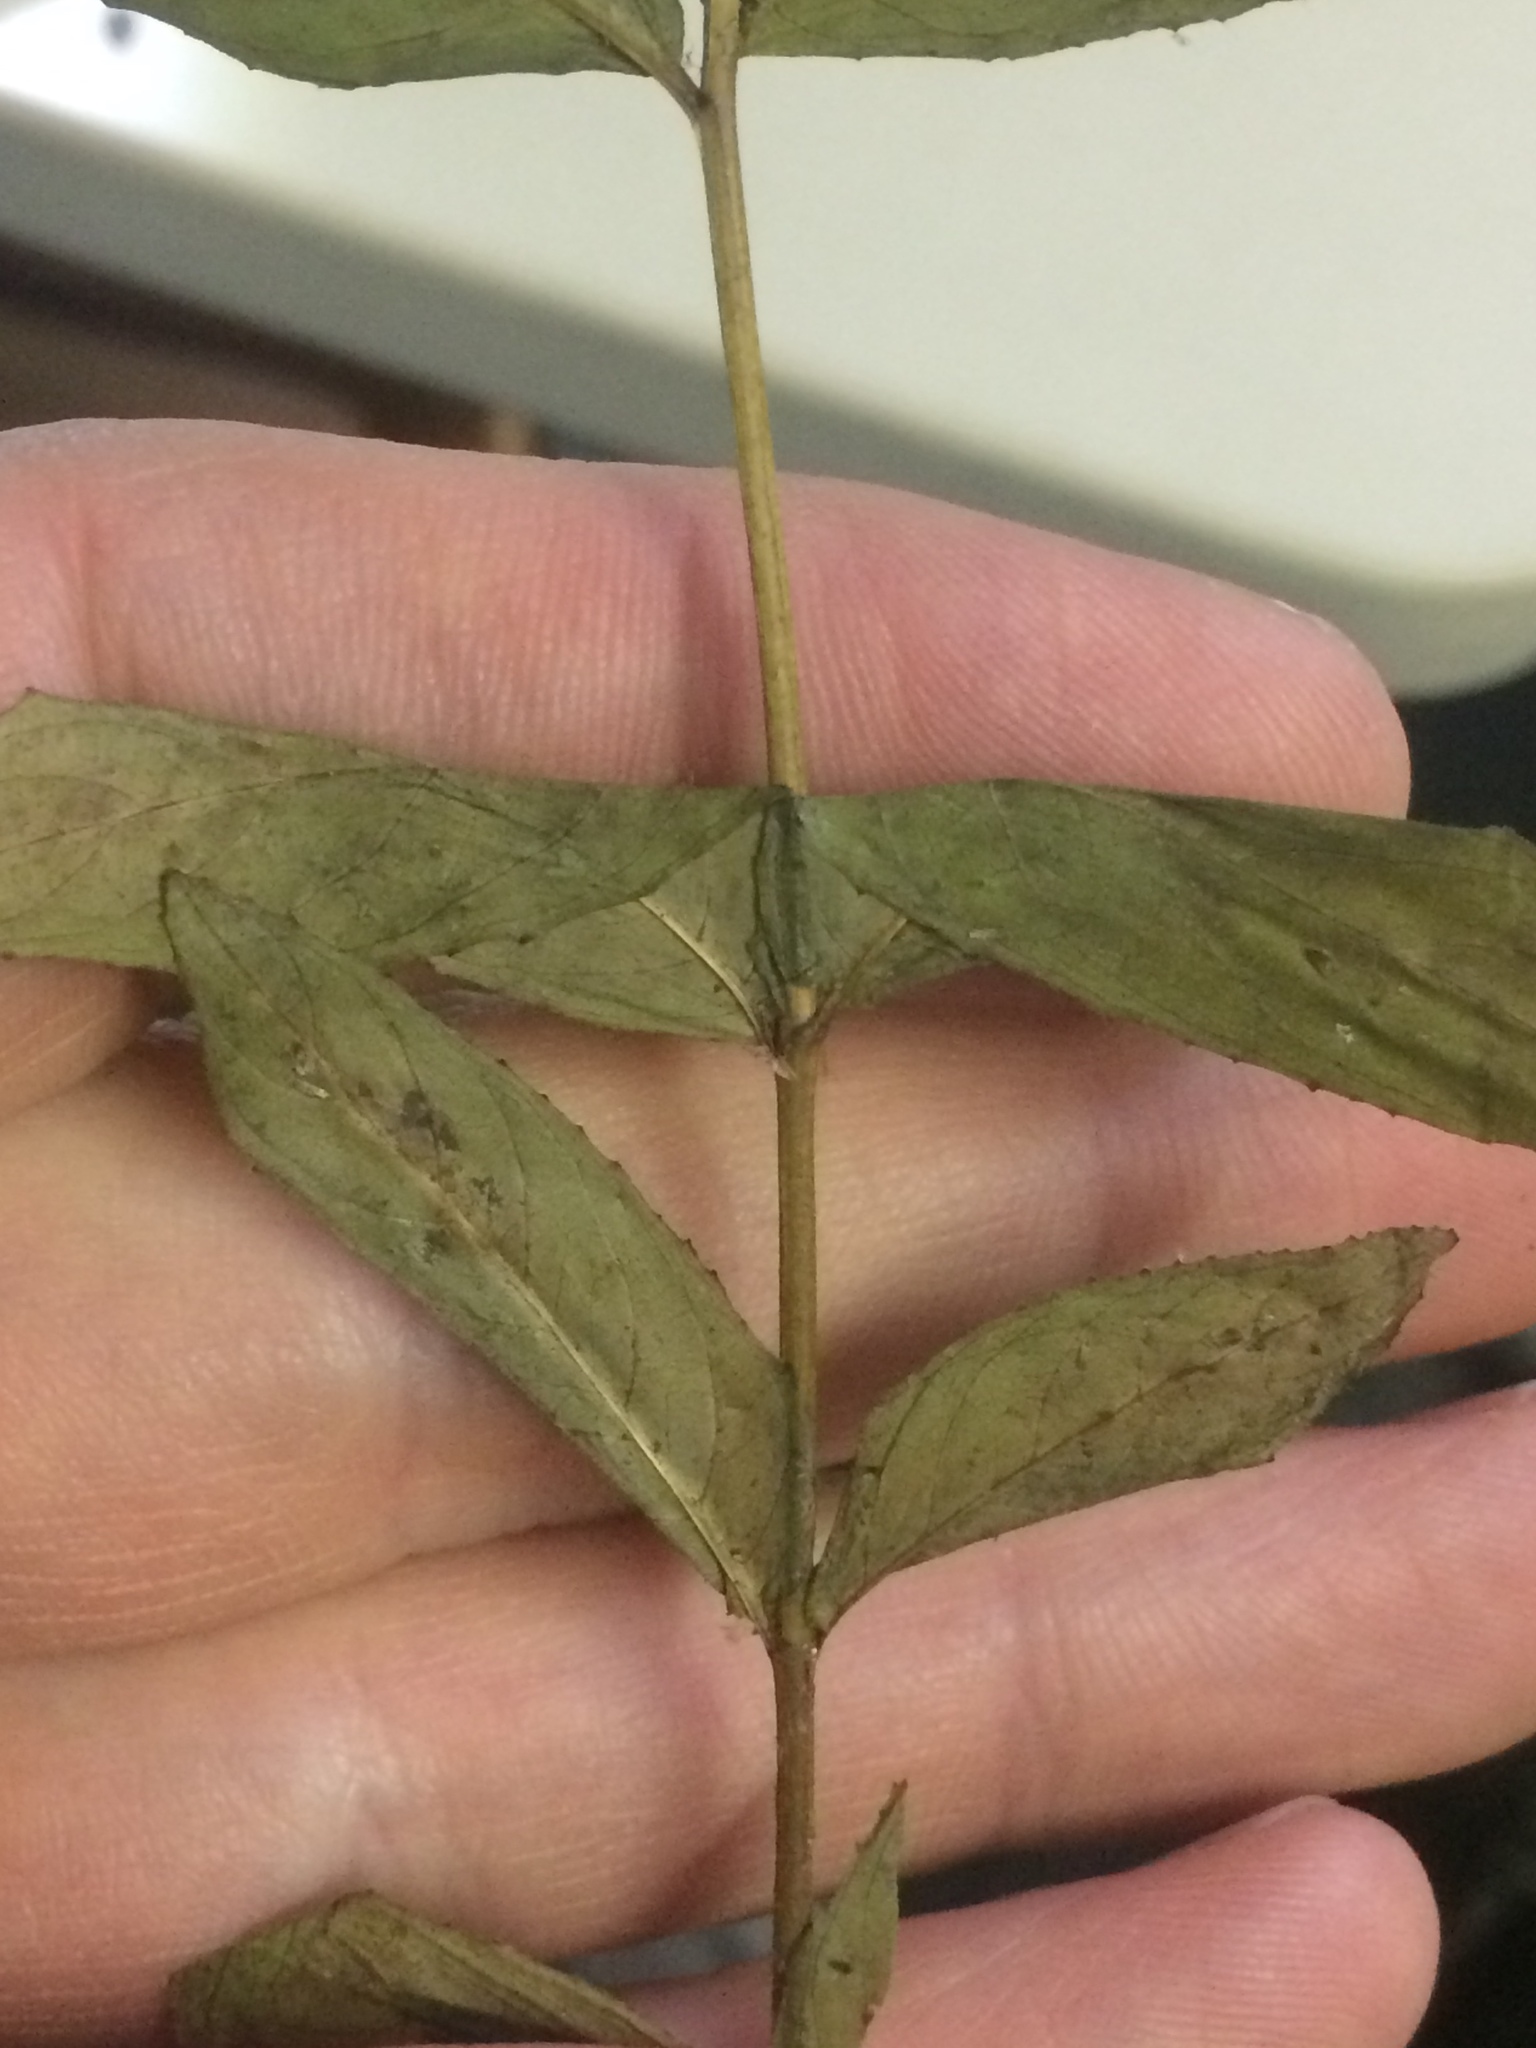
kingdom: Plantae
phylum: Tracheophyta
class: Magnoliopsida
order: Myrtales
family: Onagraceae
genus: Epilobium
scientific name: Epilobium ciliatum
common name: American willowherb
